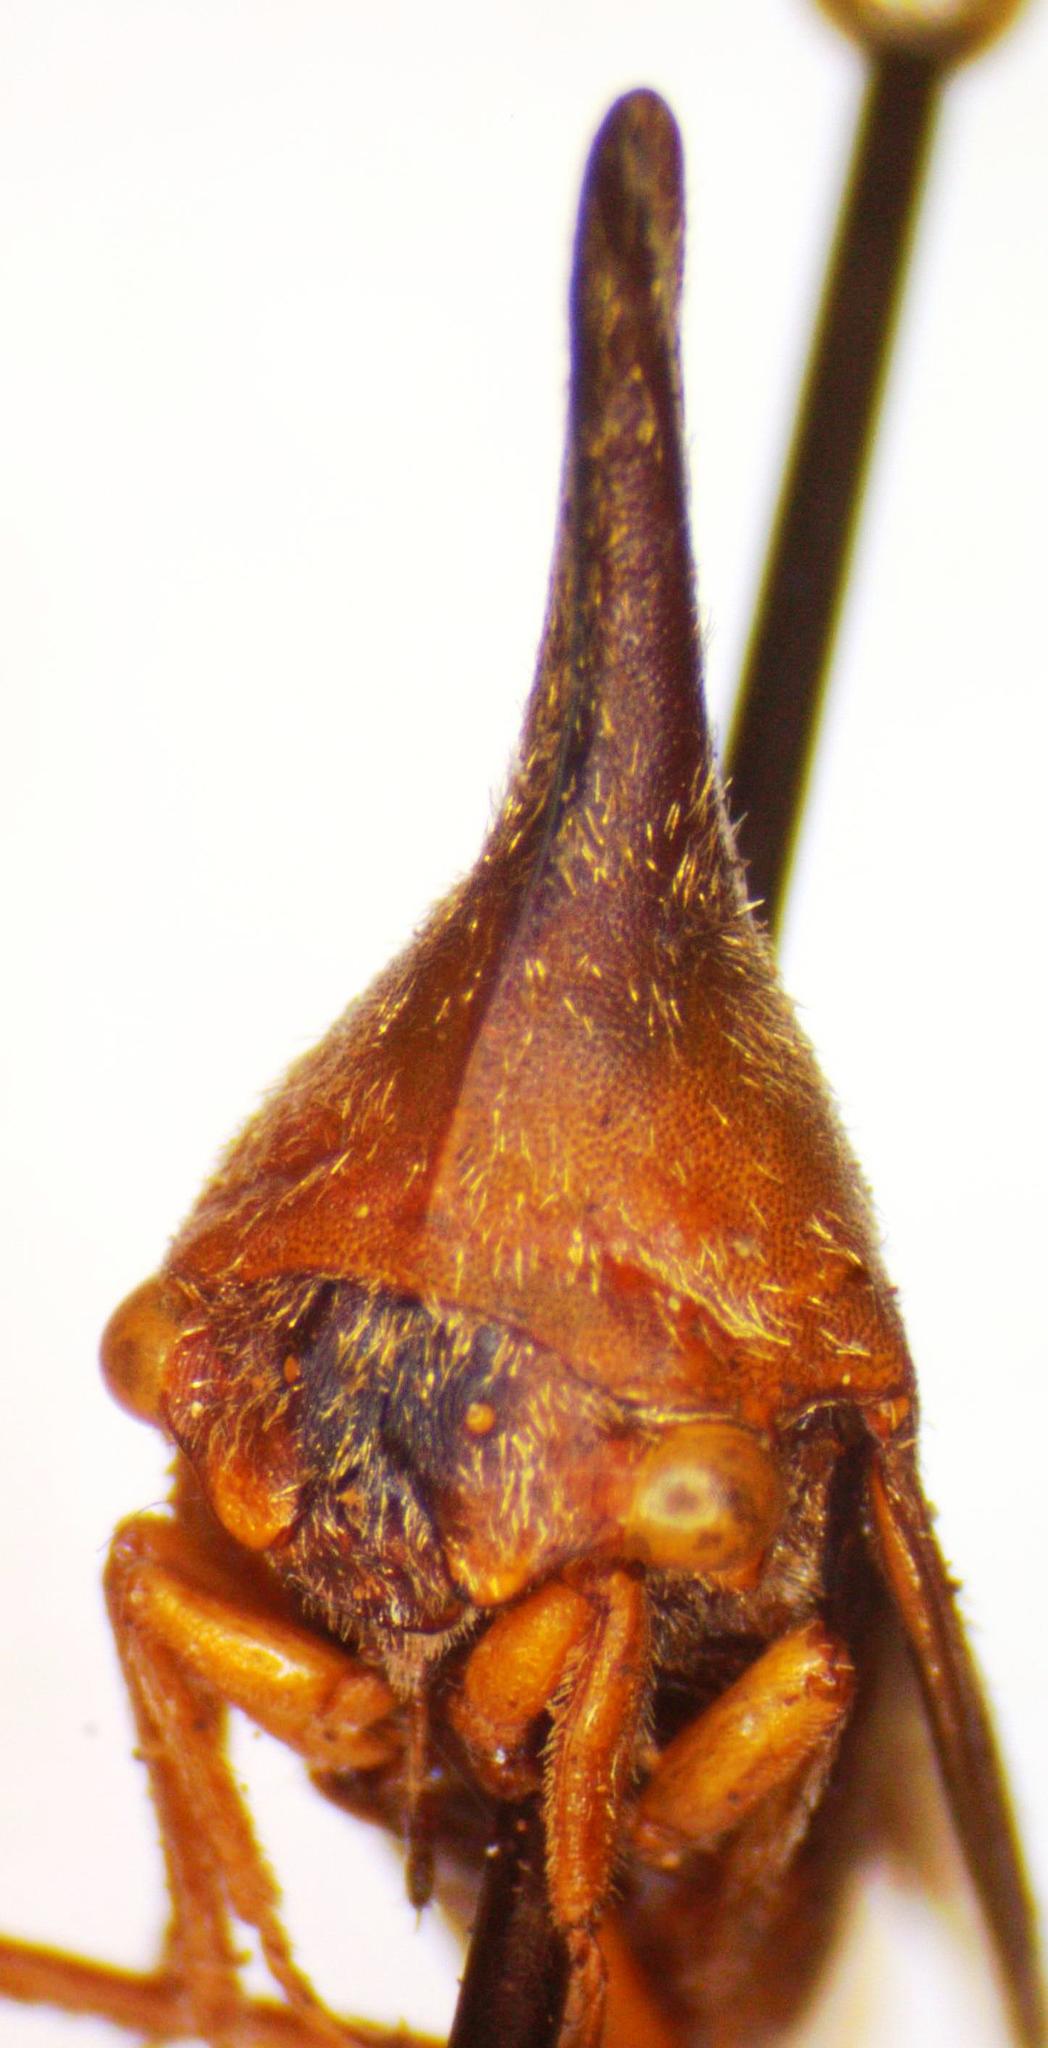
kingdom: Animalia
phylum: Arthropoda
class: Insecta
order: Hemiptera
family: Membracidae
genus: Aconophora
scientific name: Aconophora laminata
